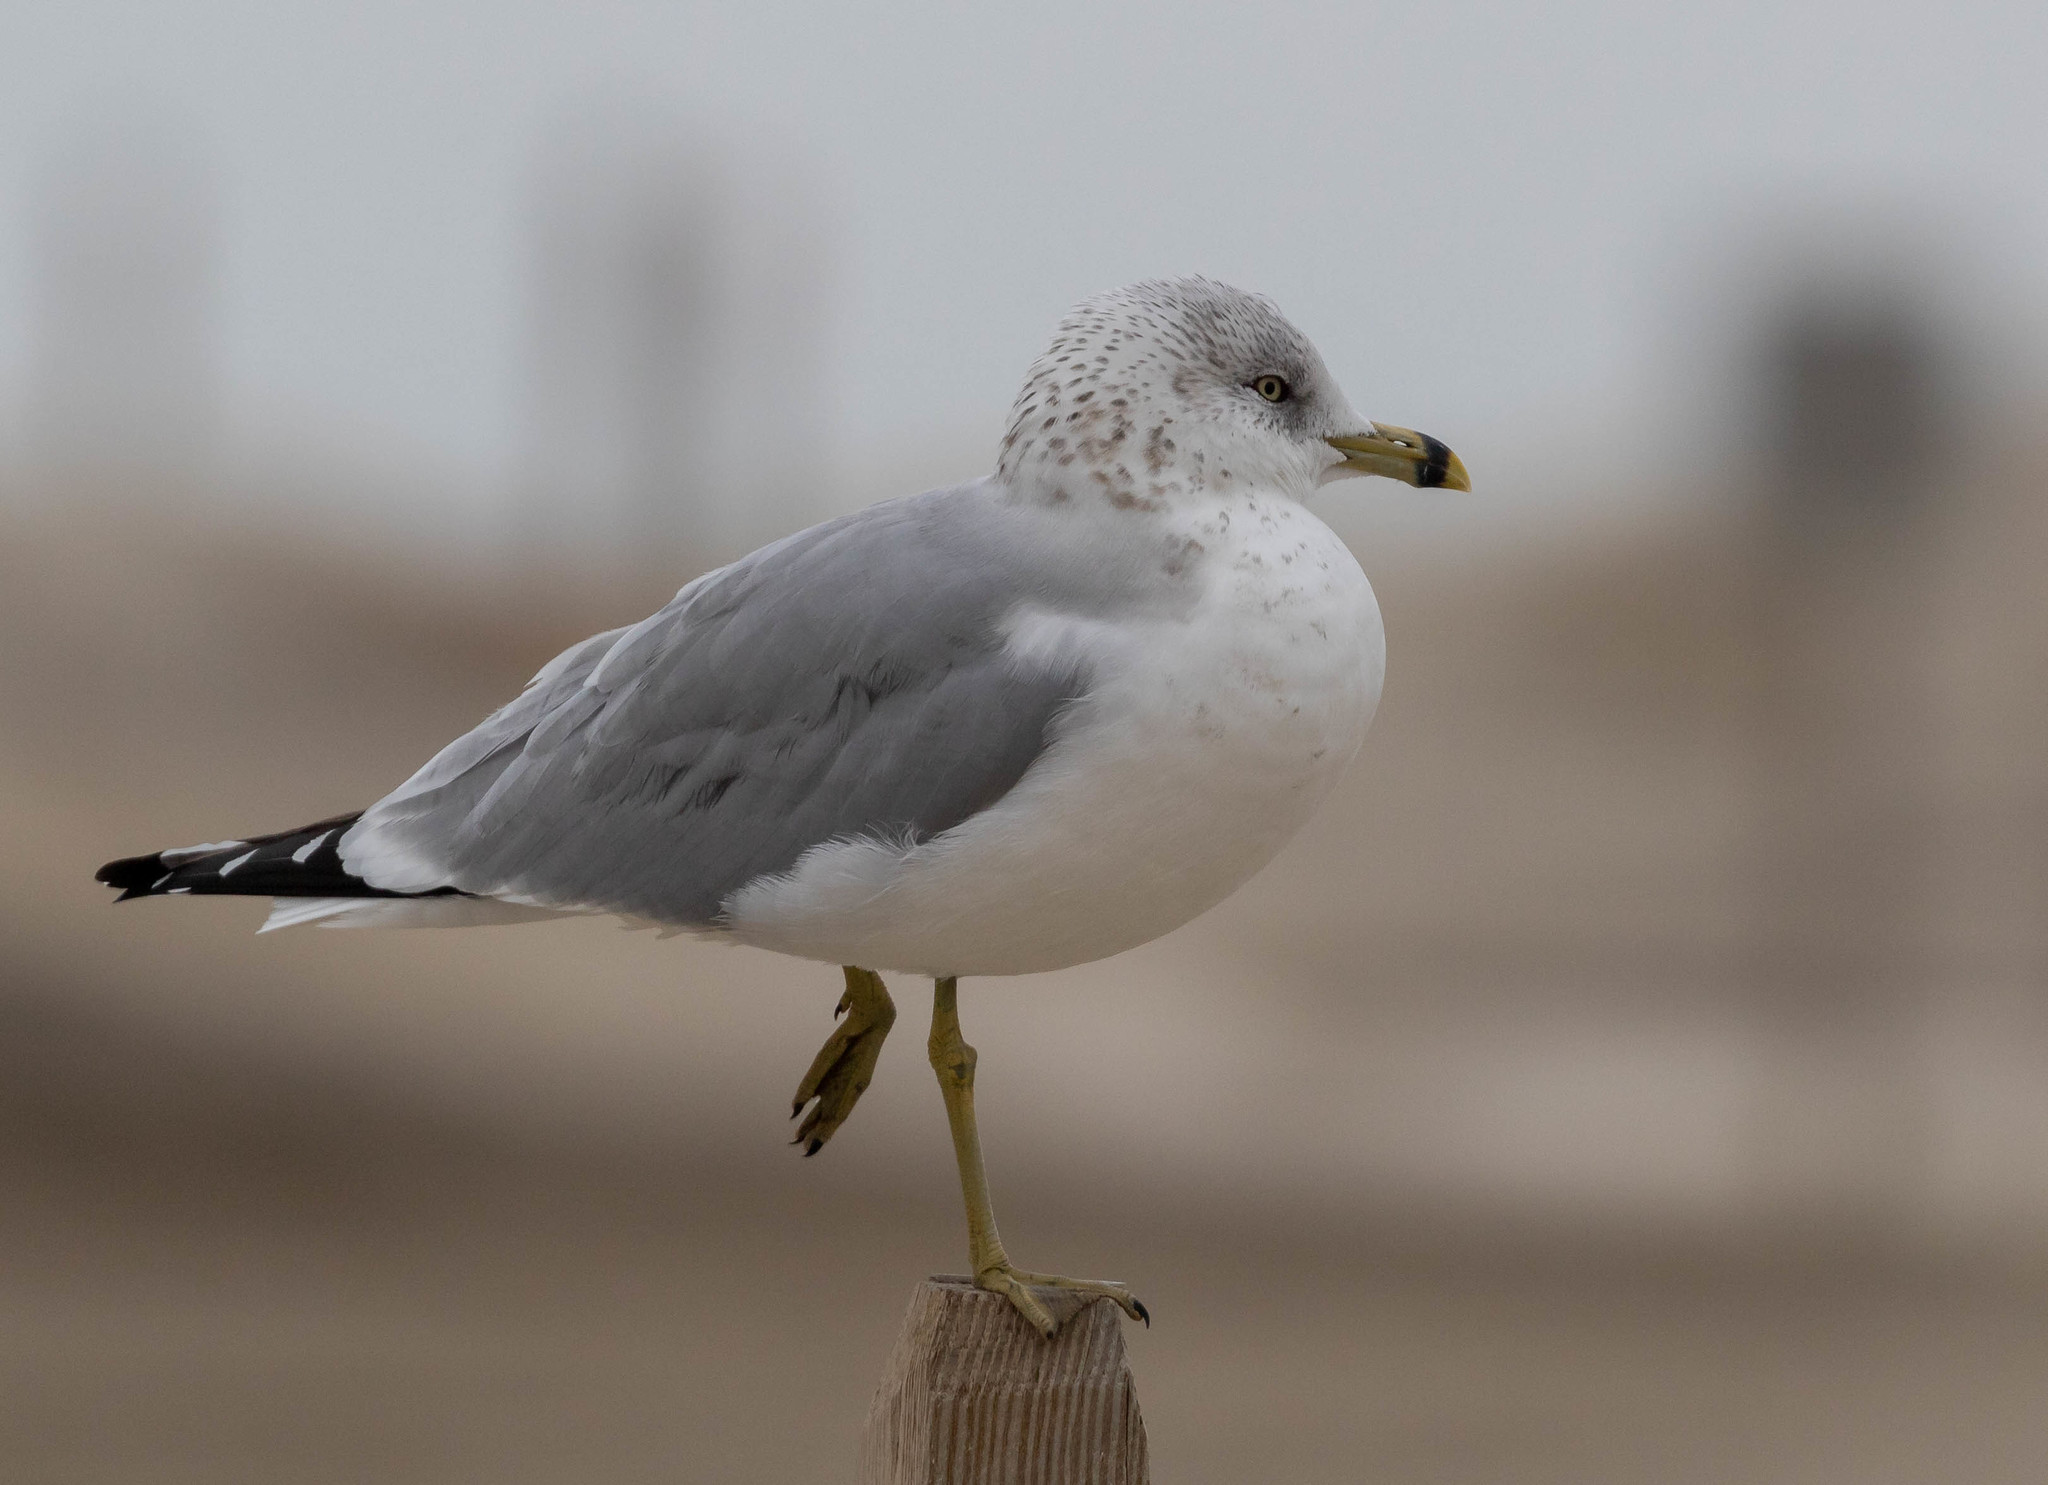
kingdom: Animalia
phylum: Chordata
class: Aves
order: Charadriiformes
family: Laridae
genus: Larus
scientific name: Larus delawarensis
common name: Ring-billed gull
